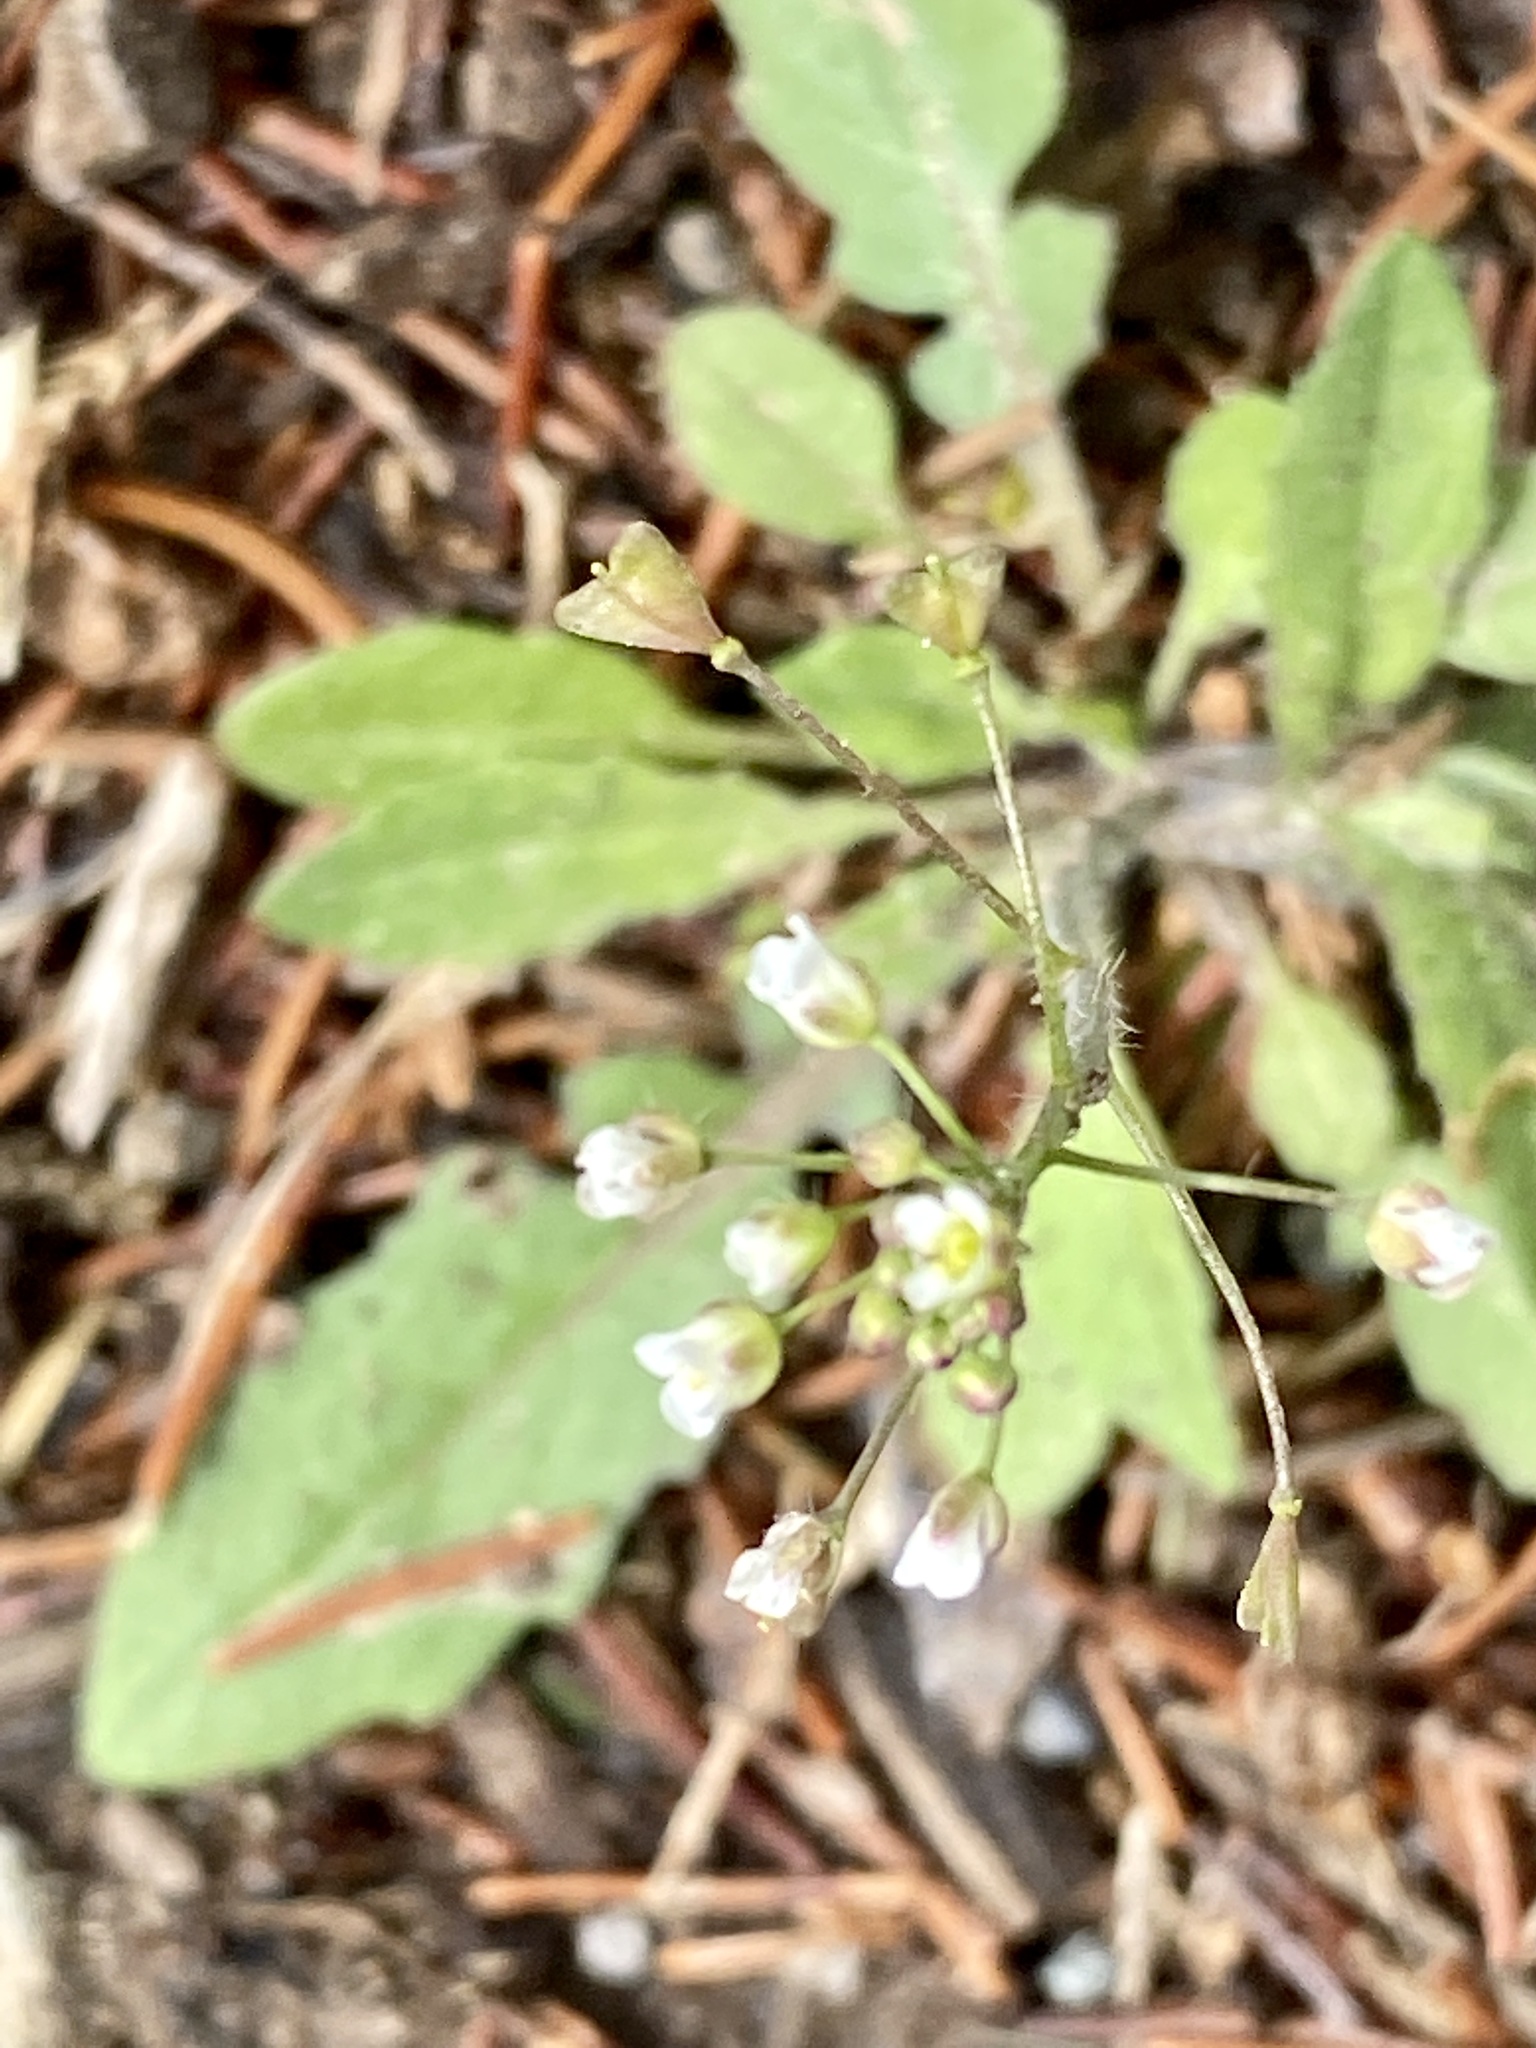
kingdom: Plantae
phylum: Tracheophyta
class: Magnoliopsida
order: Brassicales
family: Brassicaceae
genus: Capsella
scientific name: Capsella bursa-pastoris
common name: Shepherd's purse
